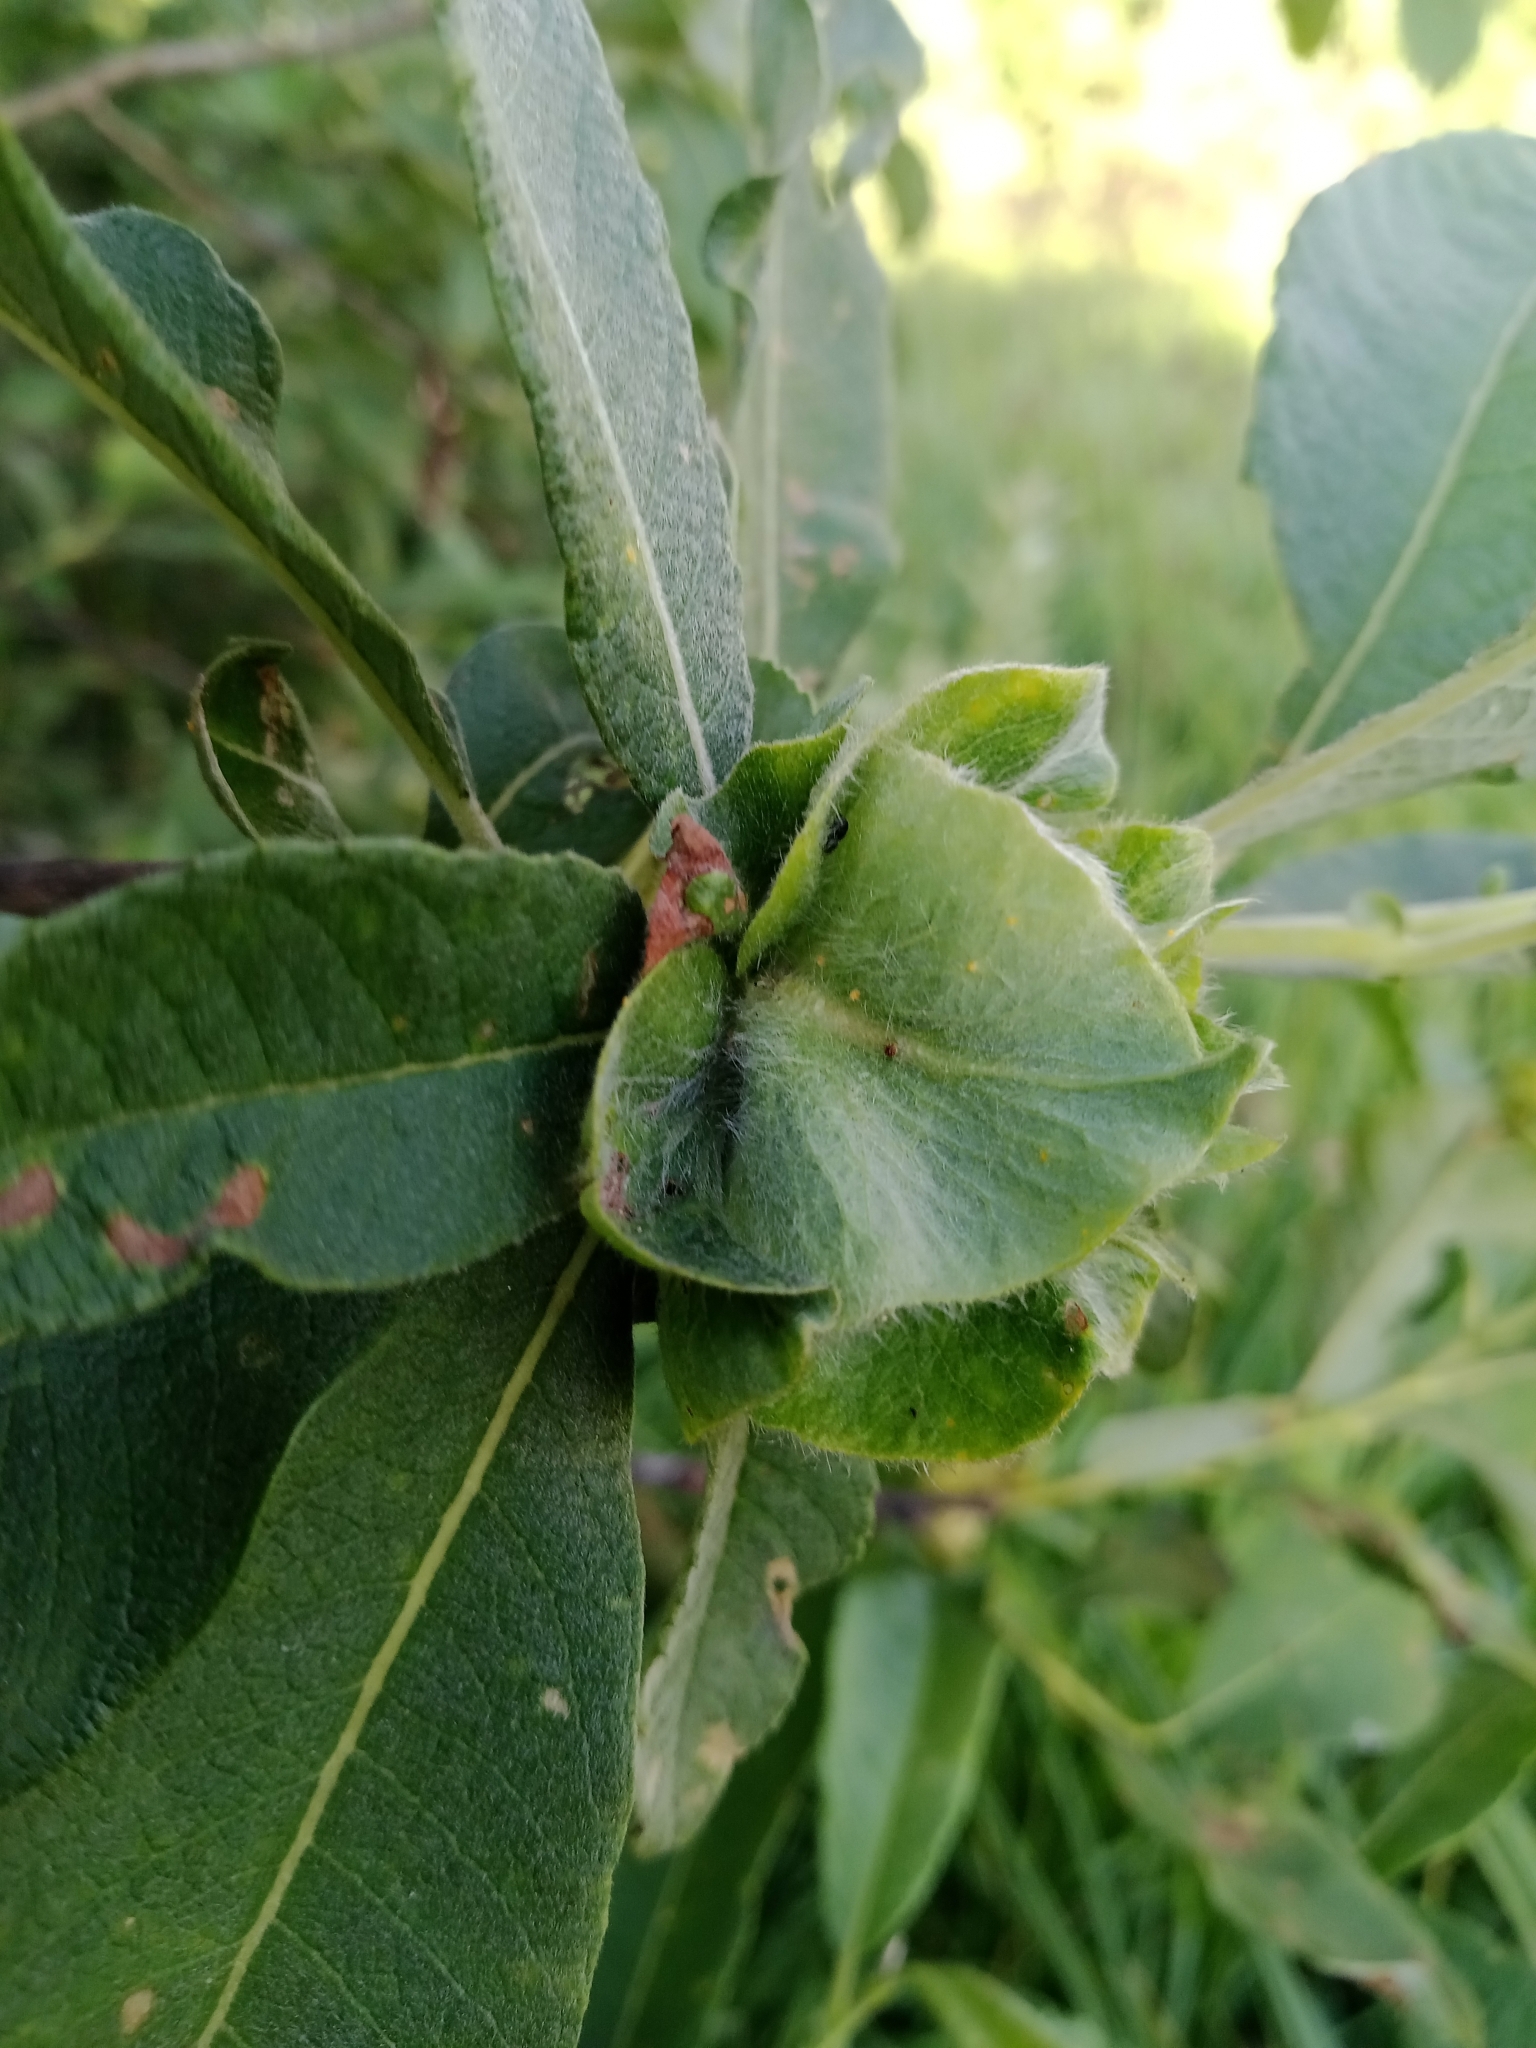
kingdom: Animalia
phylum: Arthropoda
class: Insecta
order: Diptera
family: Cecidomyiidae
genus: Rabdophaga
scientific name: Rabdophaga rosaria
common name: Willow rose gall midge
